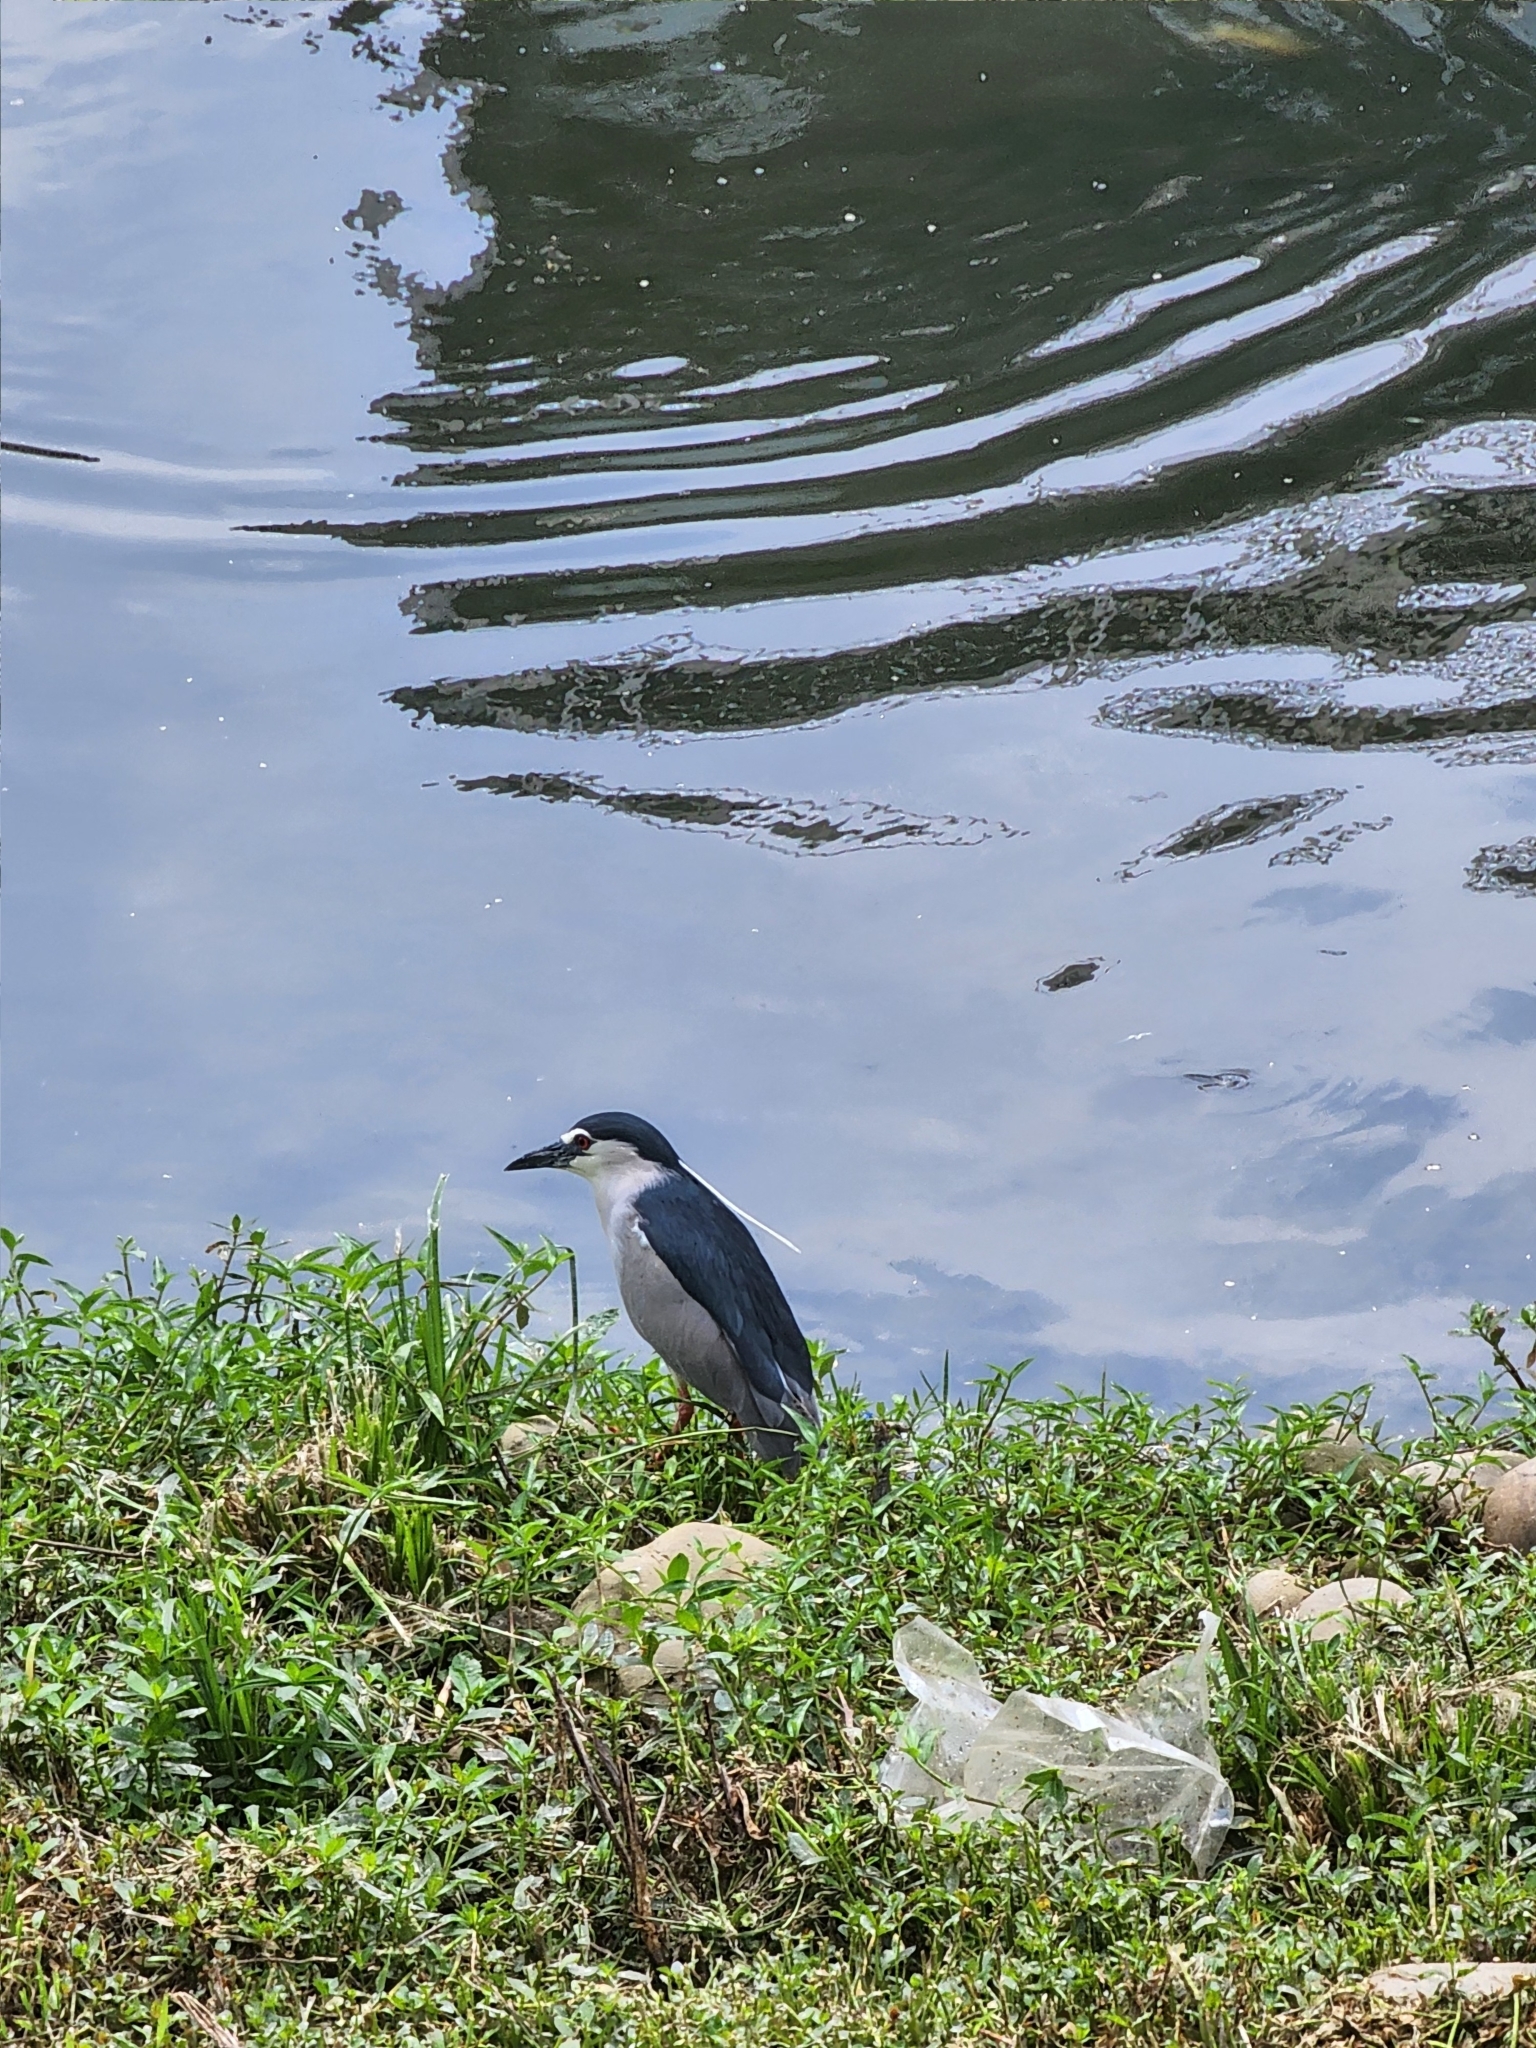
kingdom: Animalia
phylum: Chordata
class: Aves
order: Pelecaniformes
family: Ardeidae
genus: Nycticorax
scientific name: Nycticorax nycticorax
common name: Black-crowned night heron
